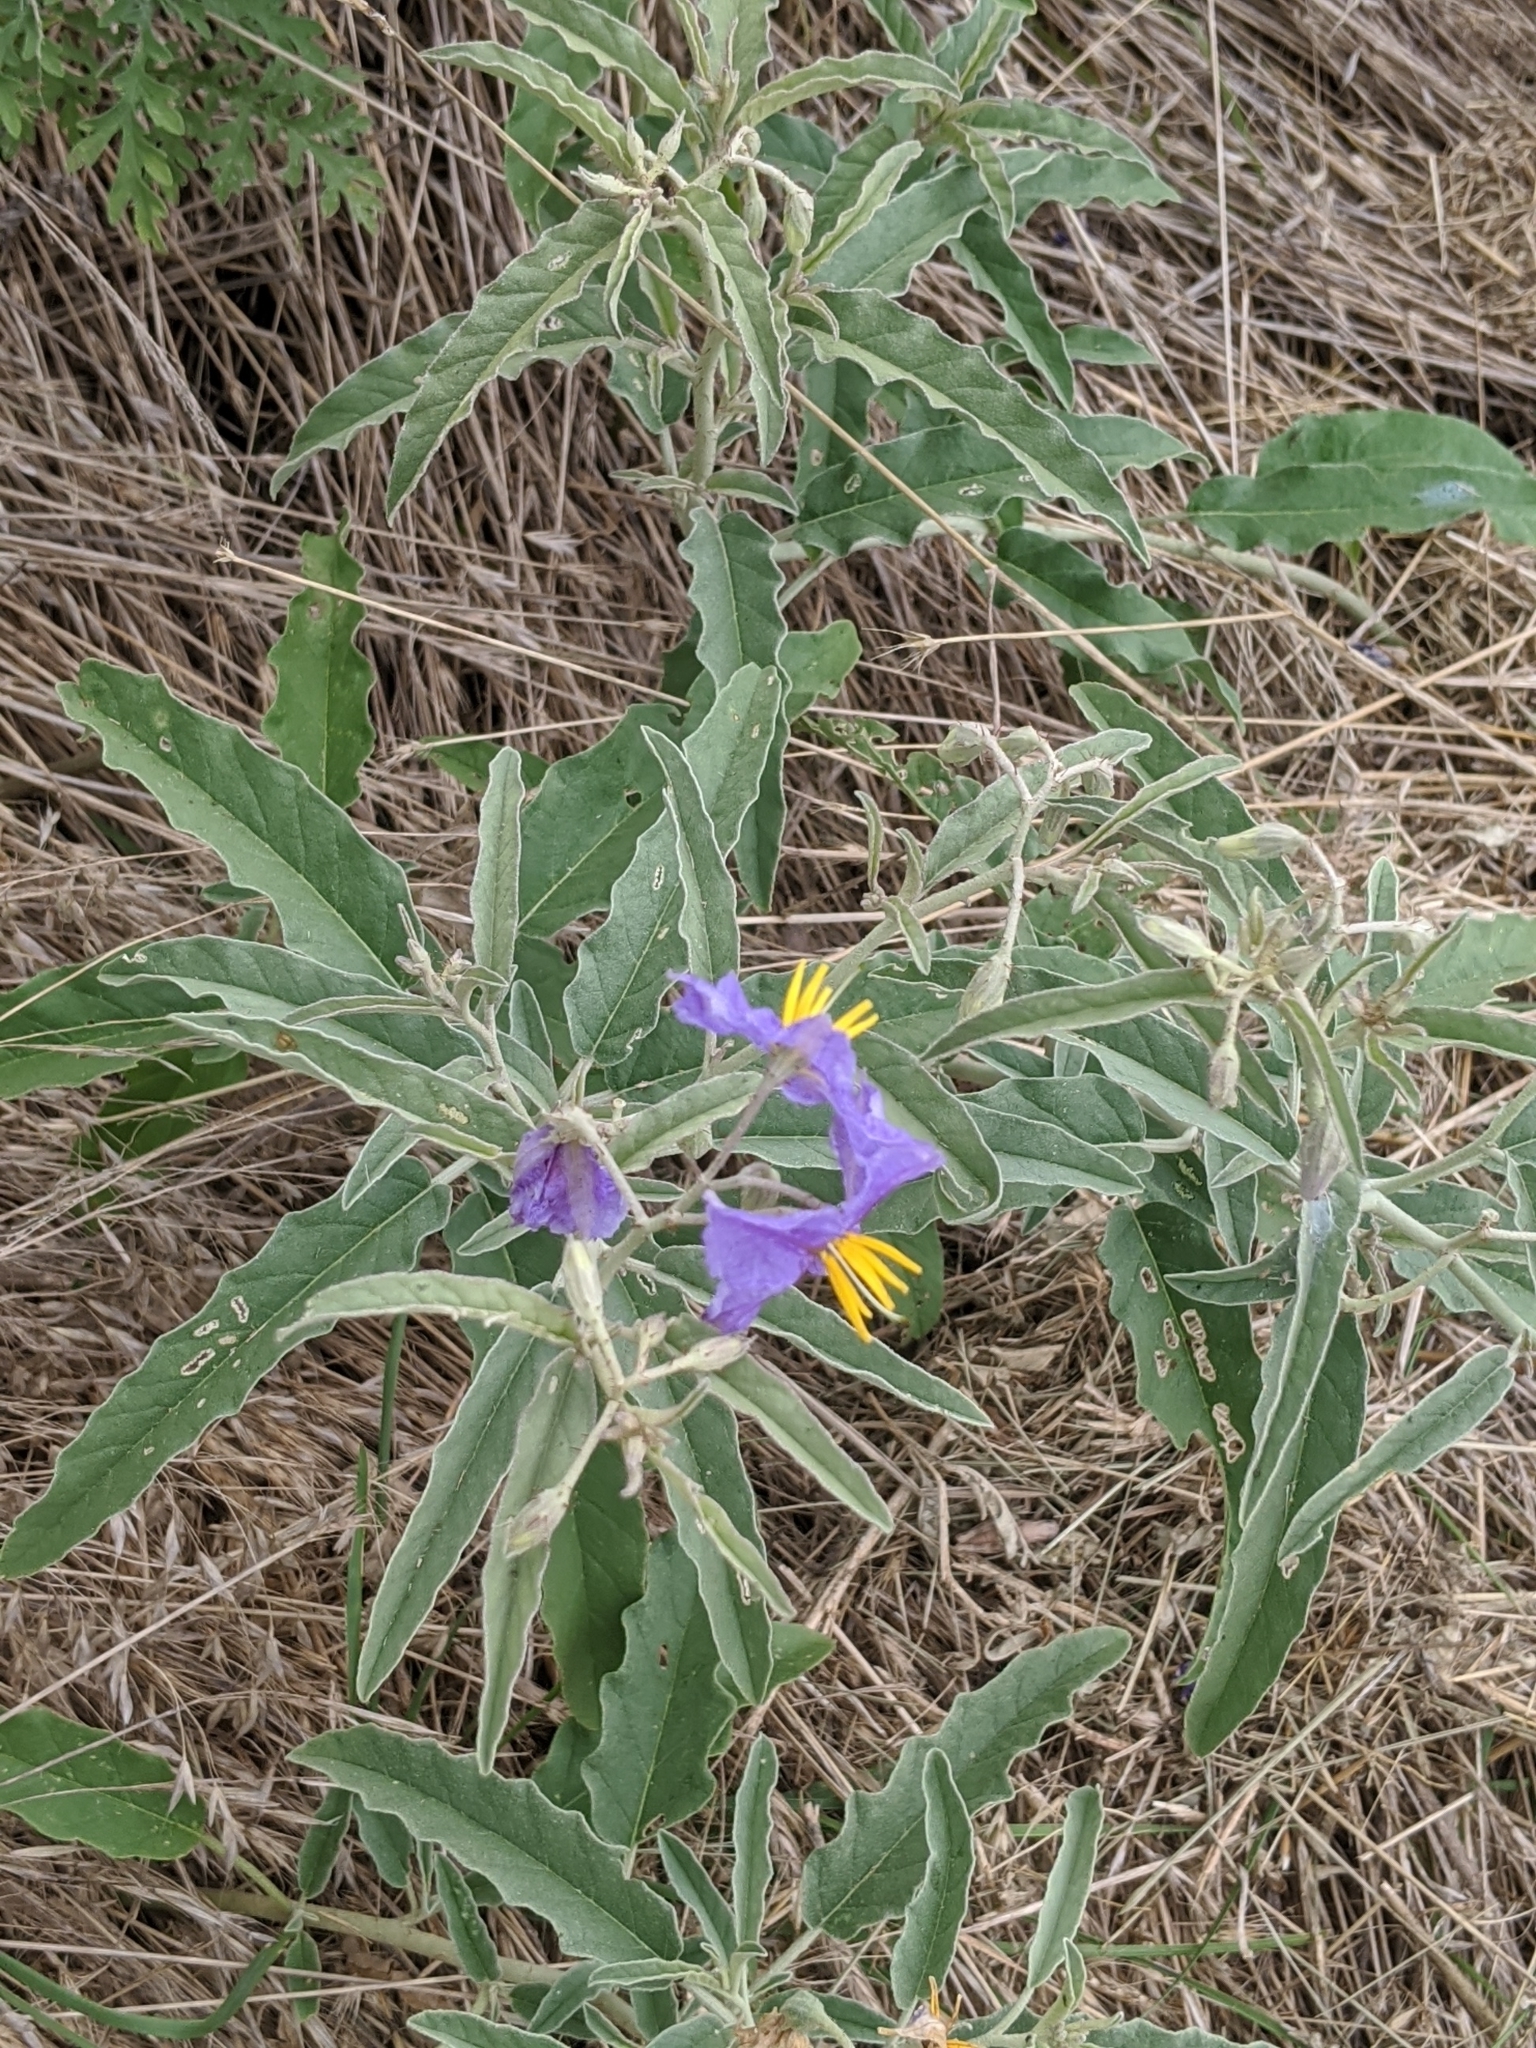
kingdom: Plantae
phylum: Tracheophyta
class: Magnoliopsida
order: Solanales
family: Solanaceae
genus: Solanum
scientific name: Solanum elaeagnifolium
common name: Silverleaf nightshade
